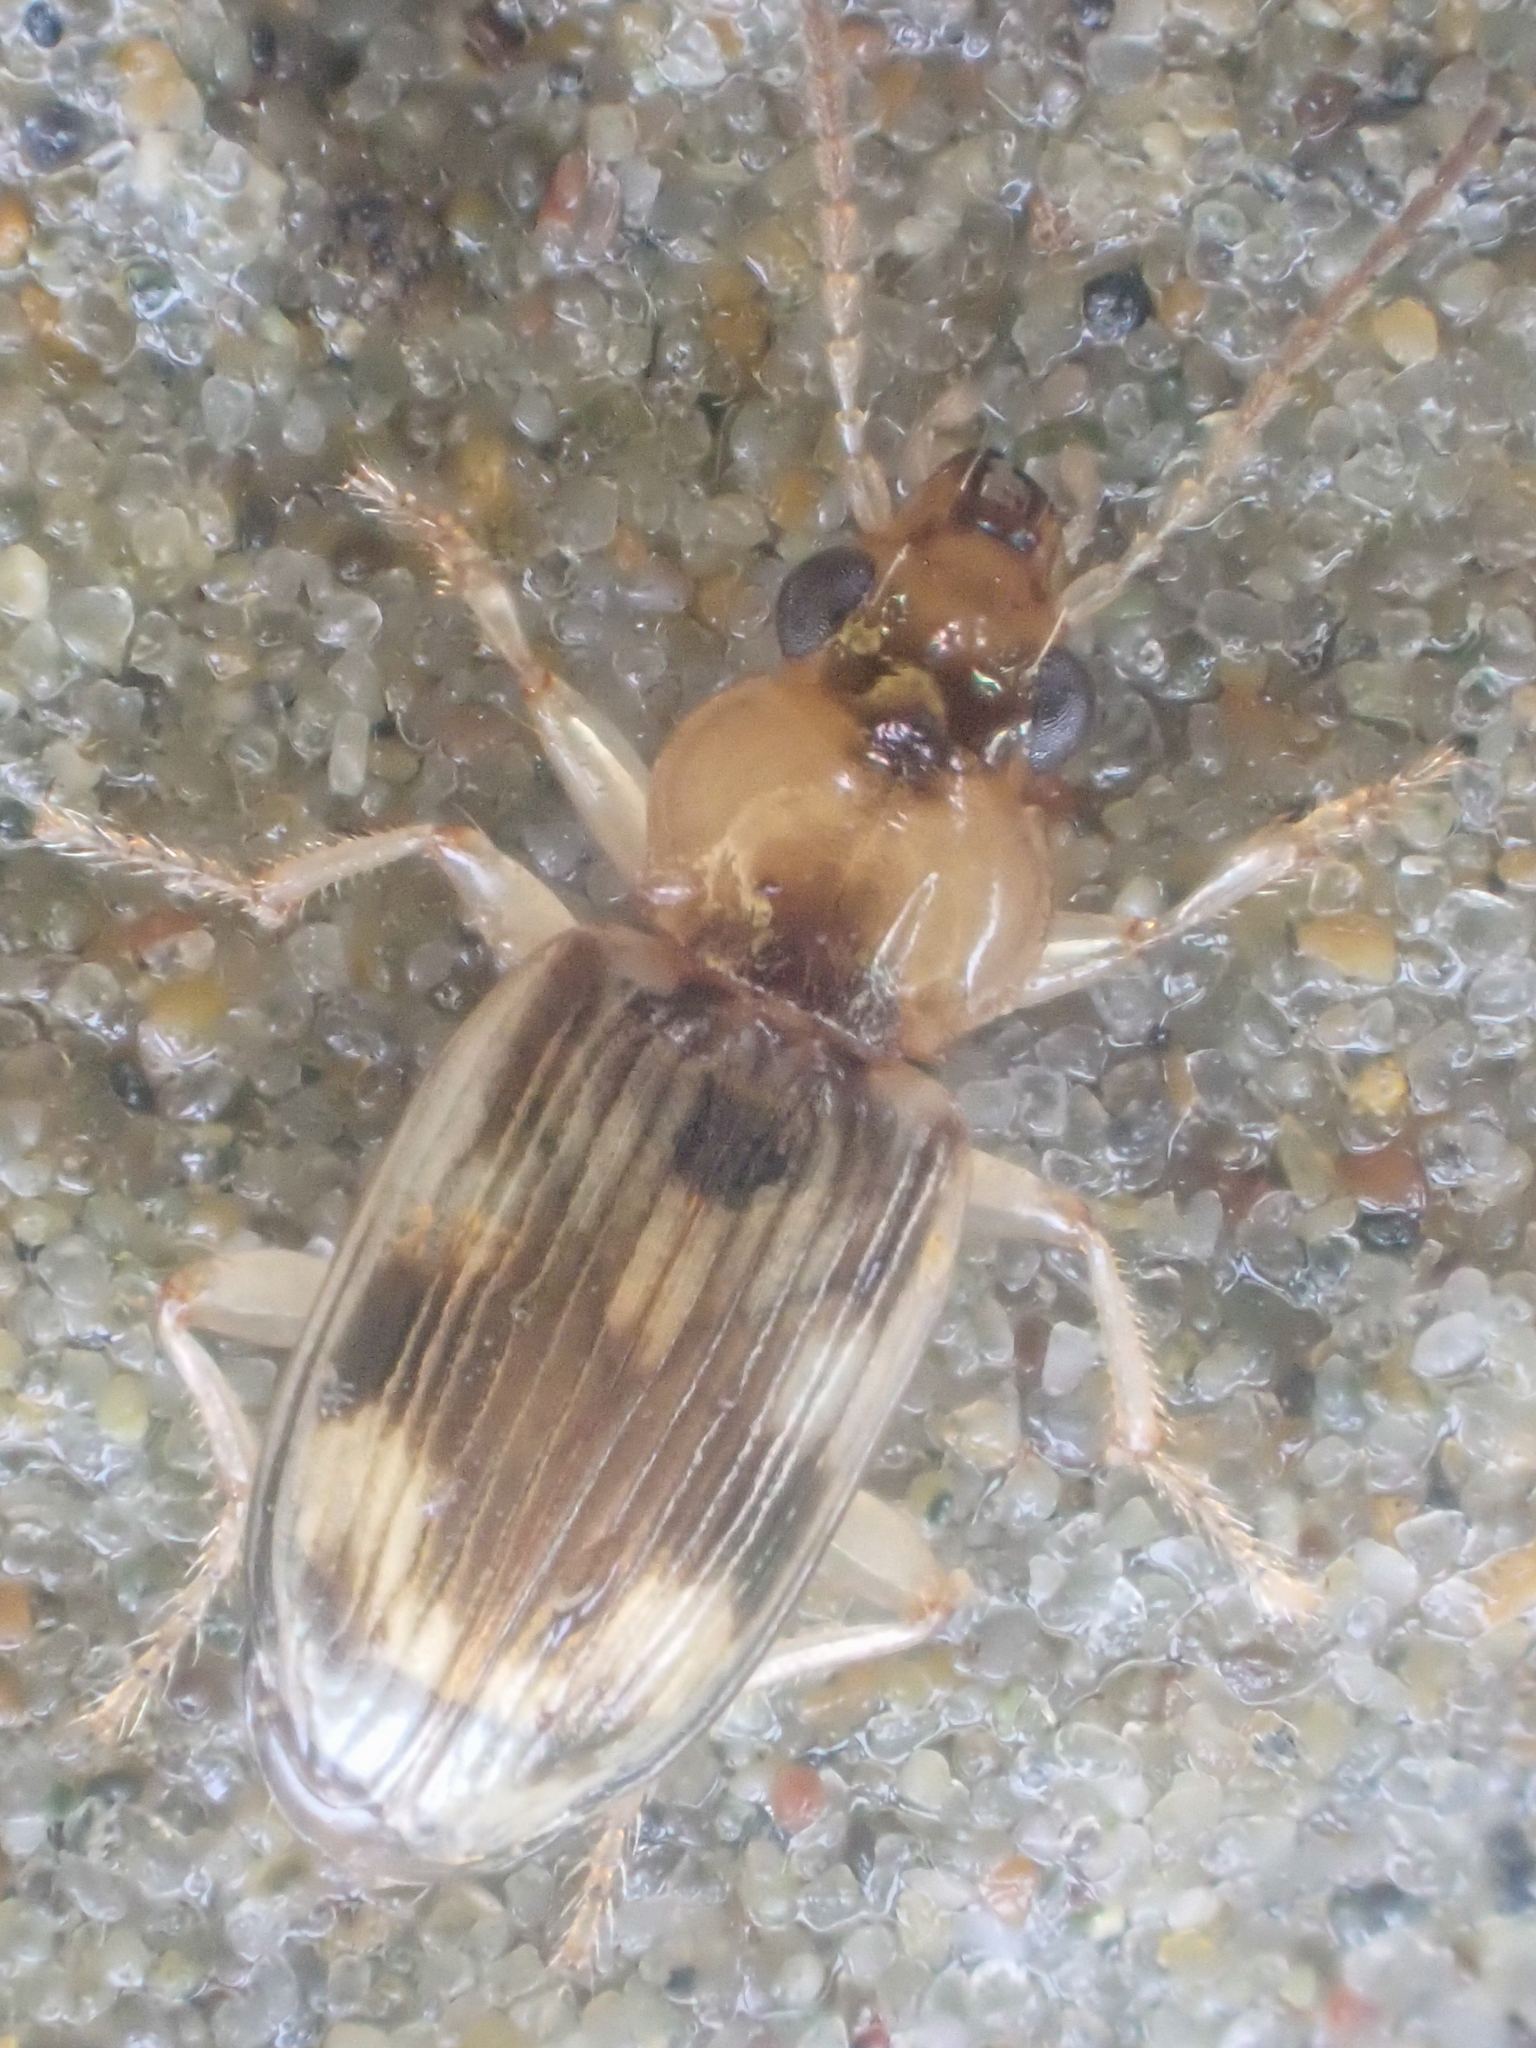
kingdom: Animalia
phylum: Arthropoda
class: Insecta
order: Coleoptera
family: Carabidae
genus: Bembidion
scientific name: Bembidion tigrinum
